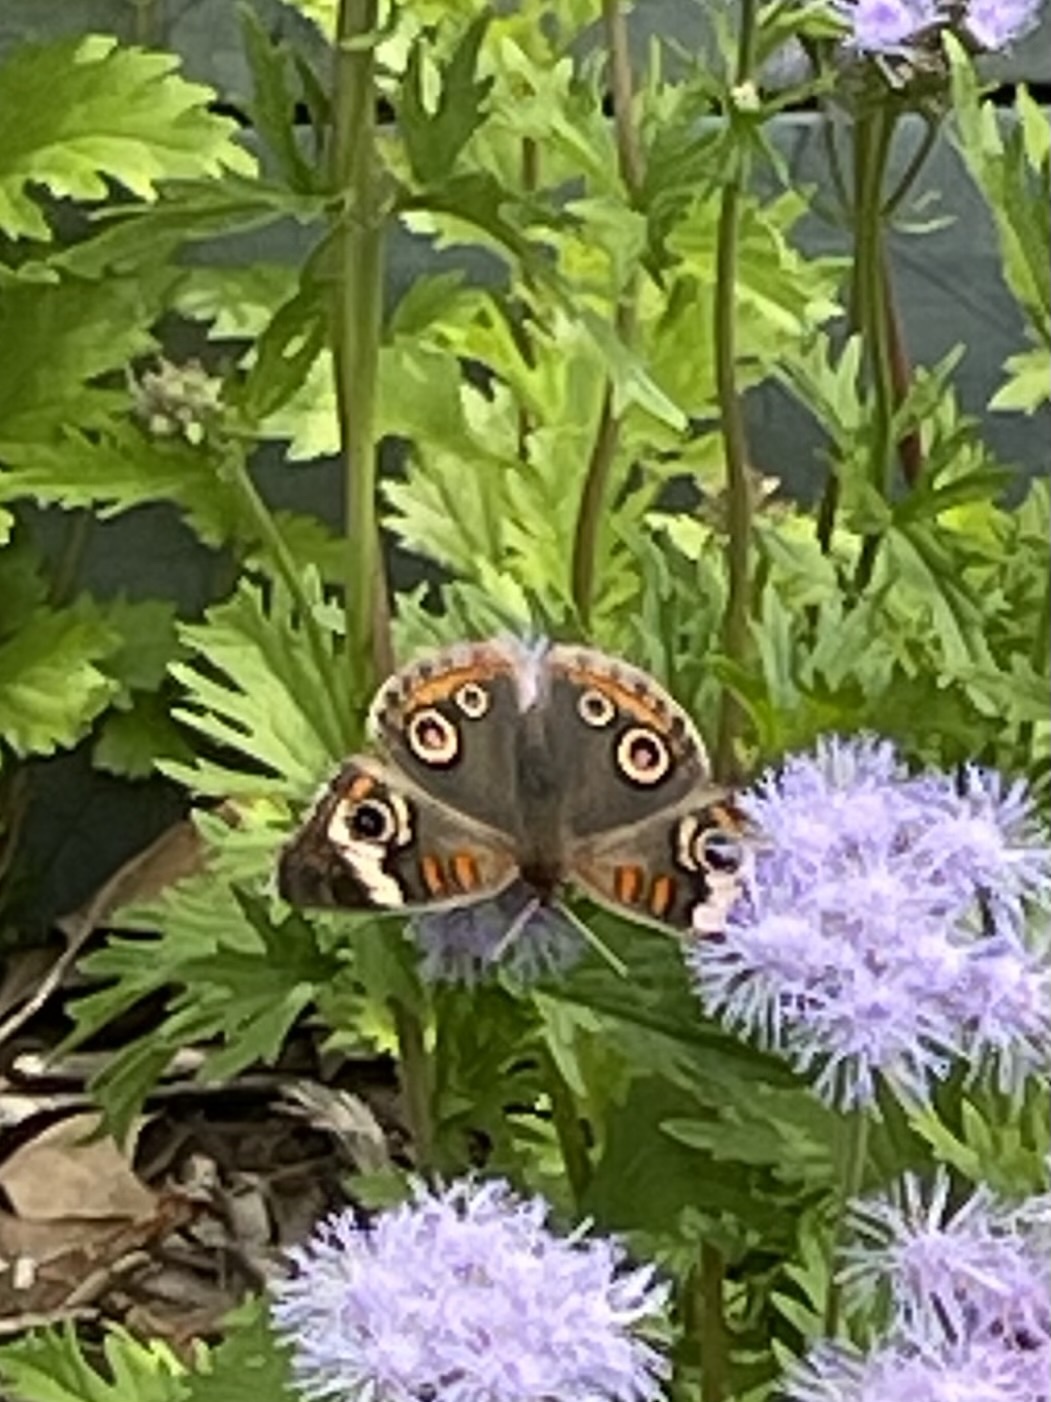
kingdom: Animalia
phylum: Arthropoda
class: Insecta
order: Lepidoptera
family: Nymphalidae
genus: Junonia
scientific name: Junonia coenia
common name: Common buckeye
